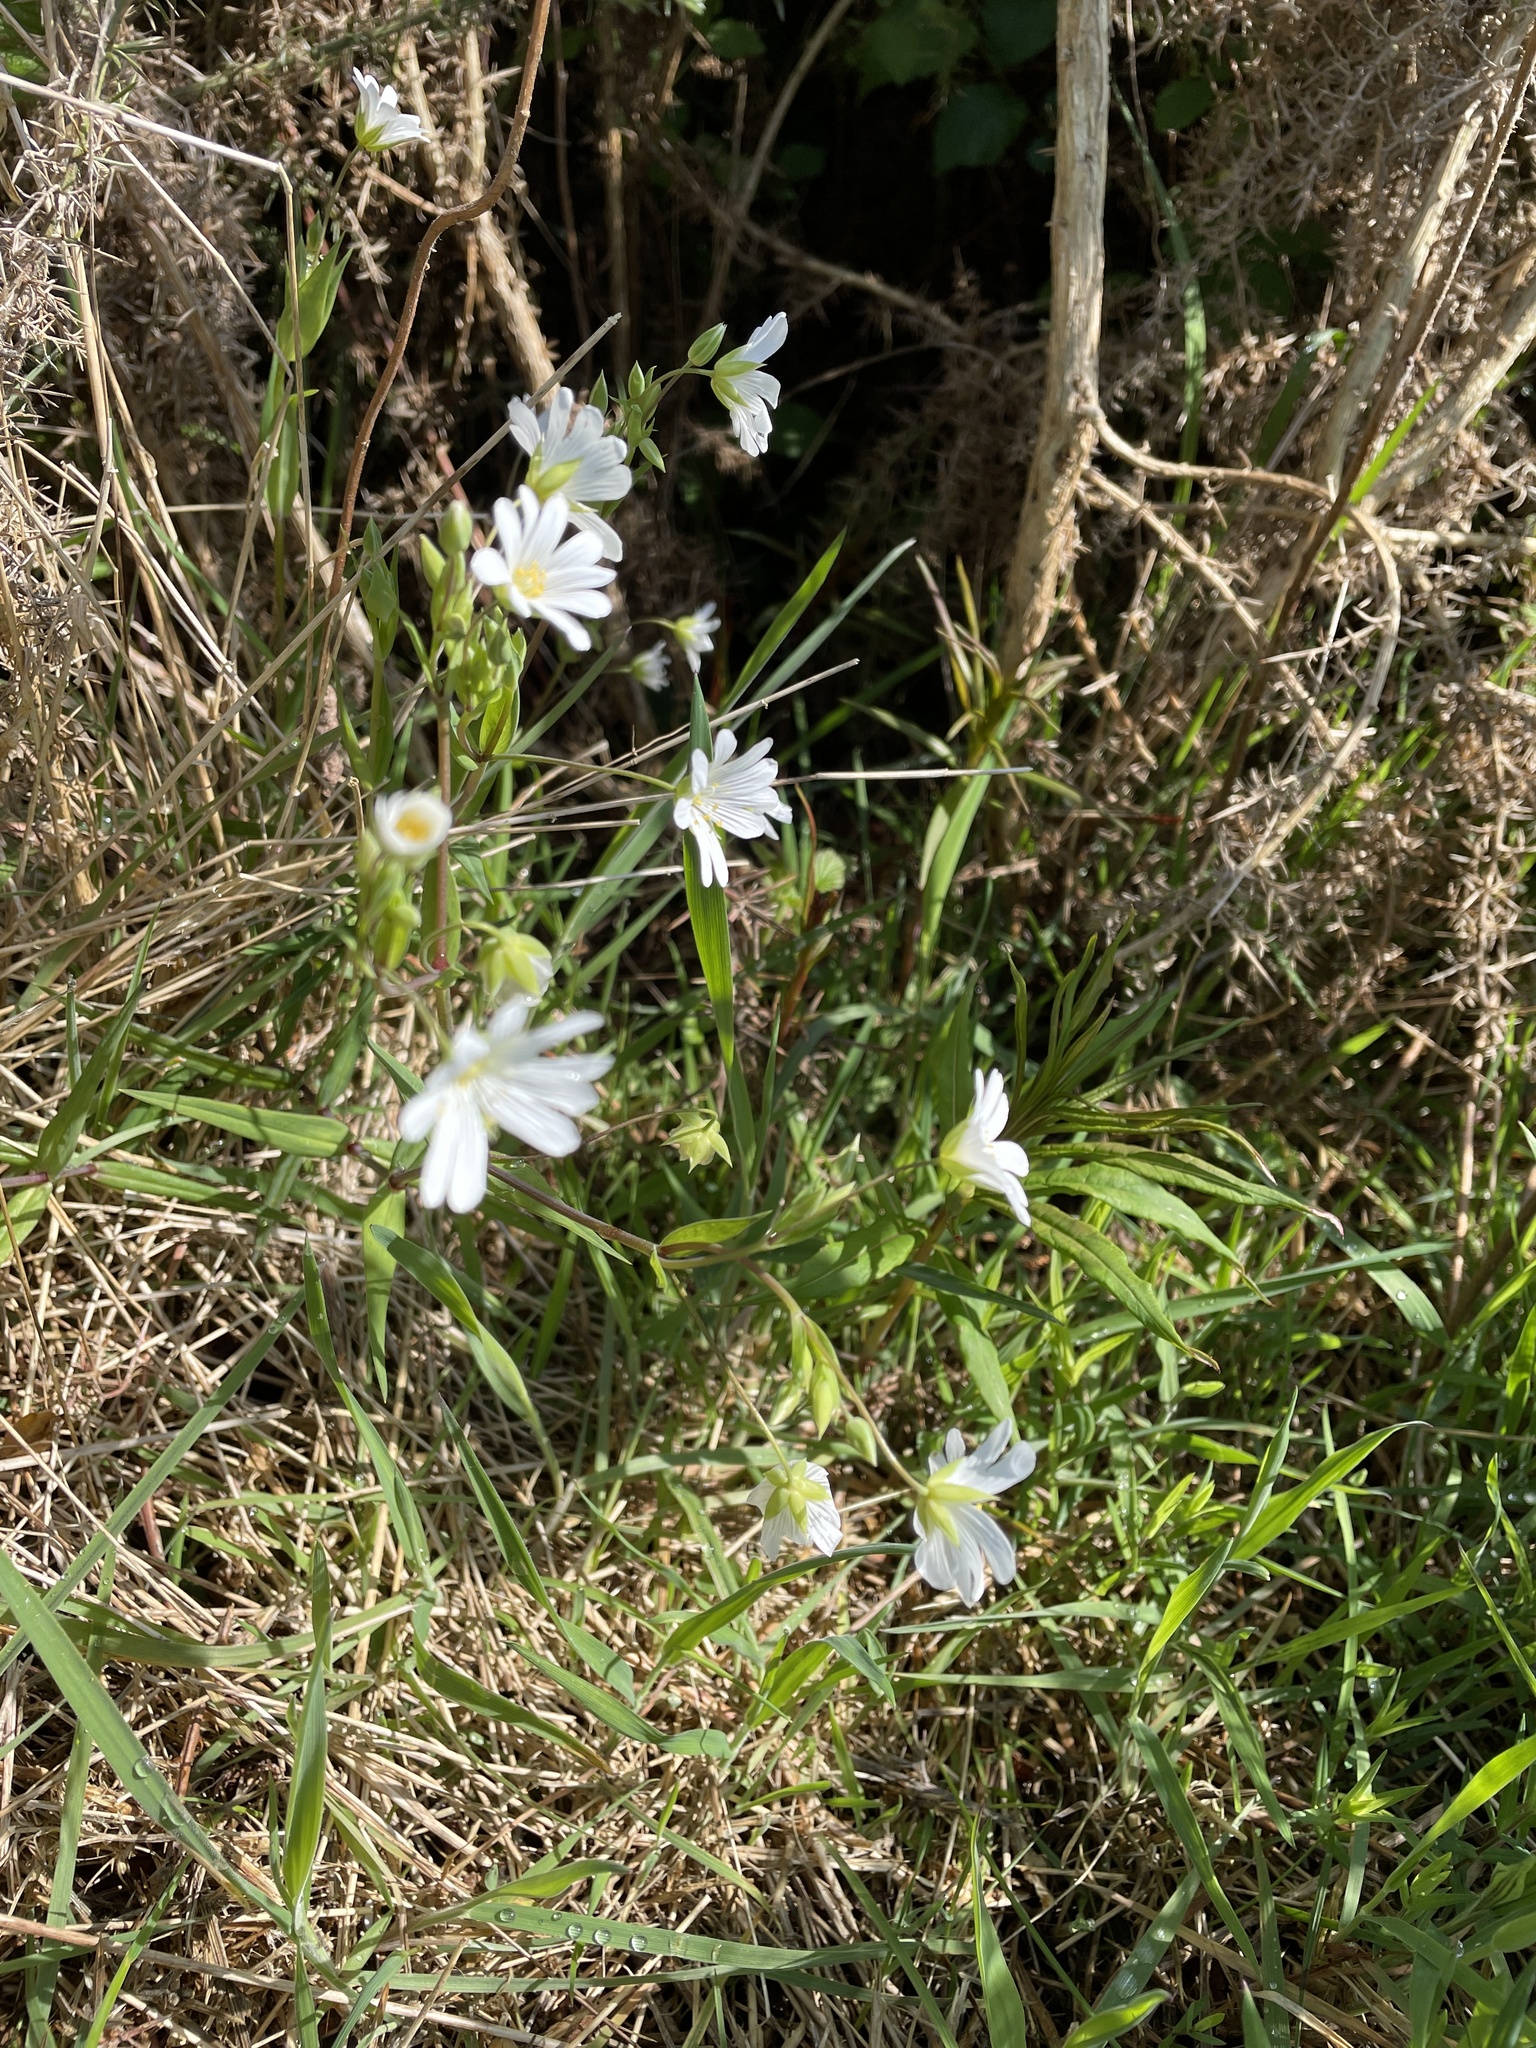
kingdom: Plantae
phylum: Tracheophyta
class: Magnoliopsida
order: Caryophyllales
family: Caryophyllaceae
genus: Rabelera
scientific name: Rabelera holostea
